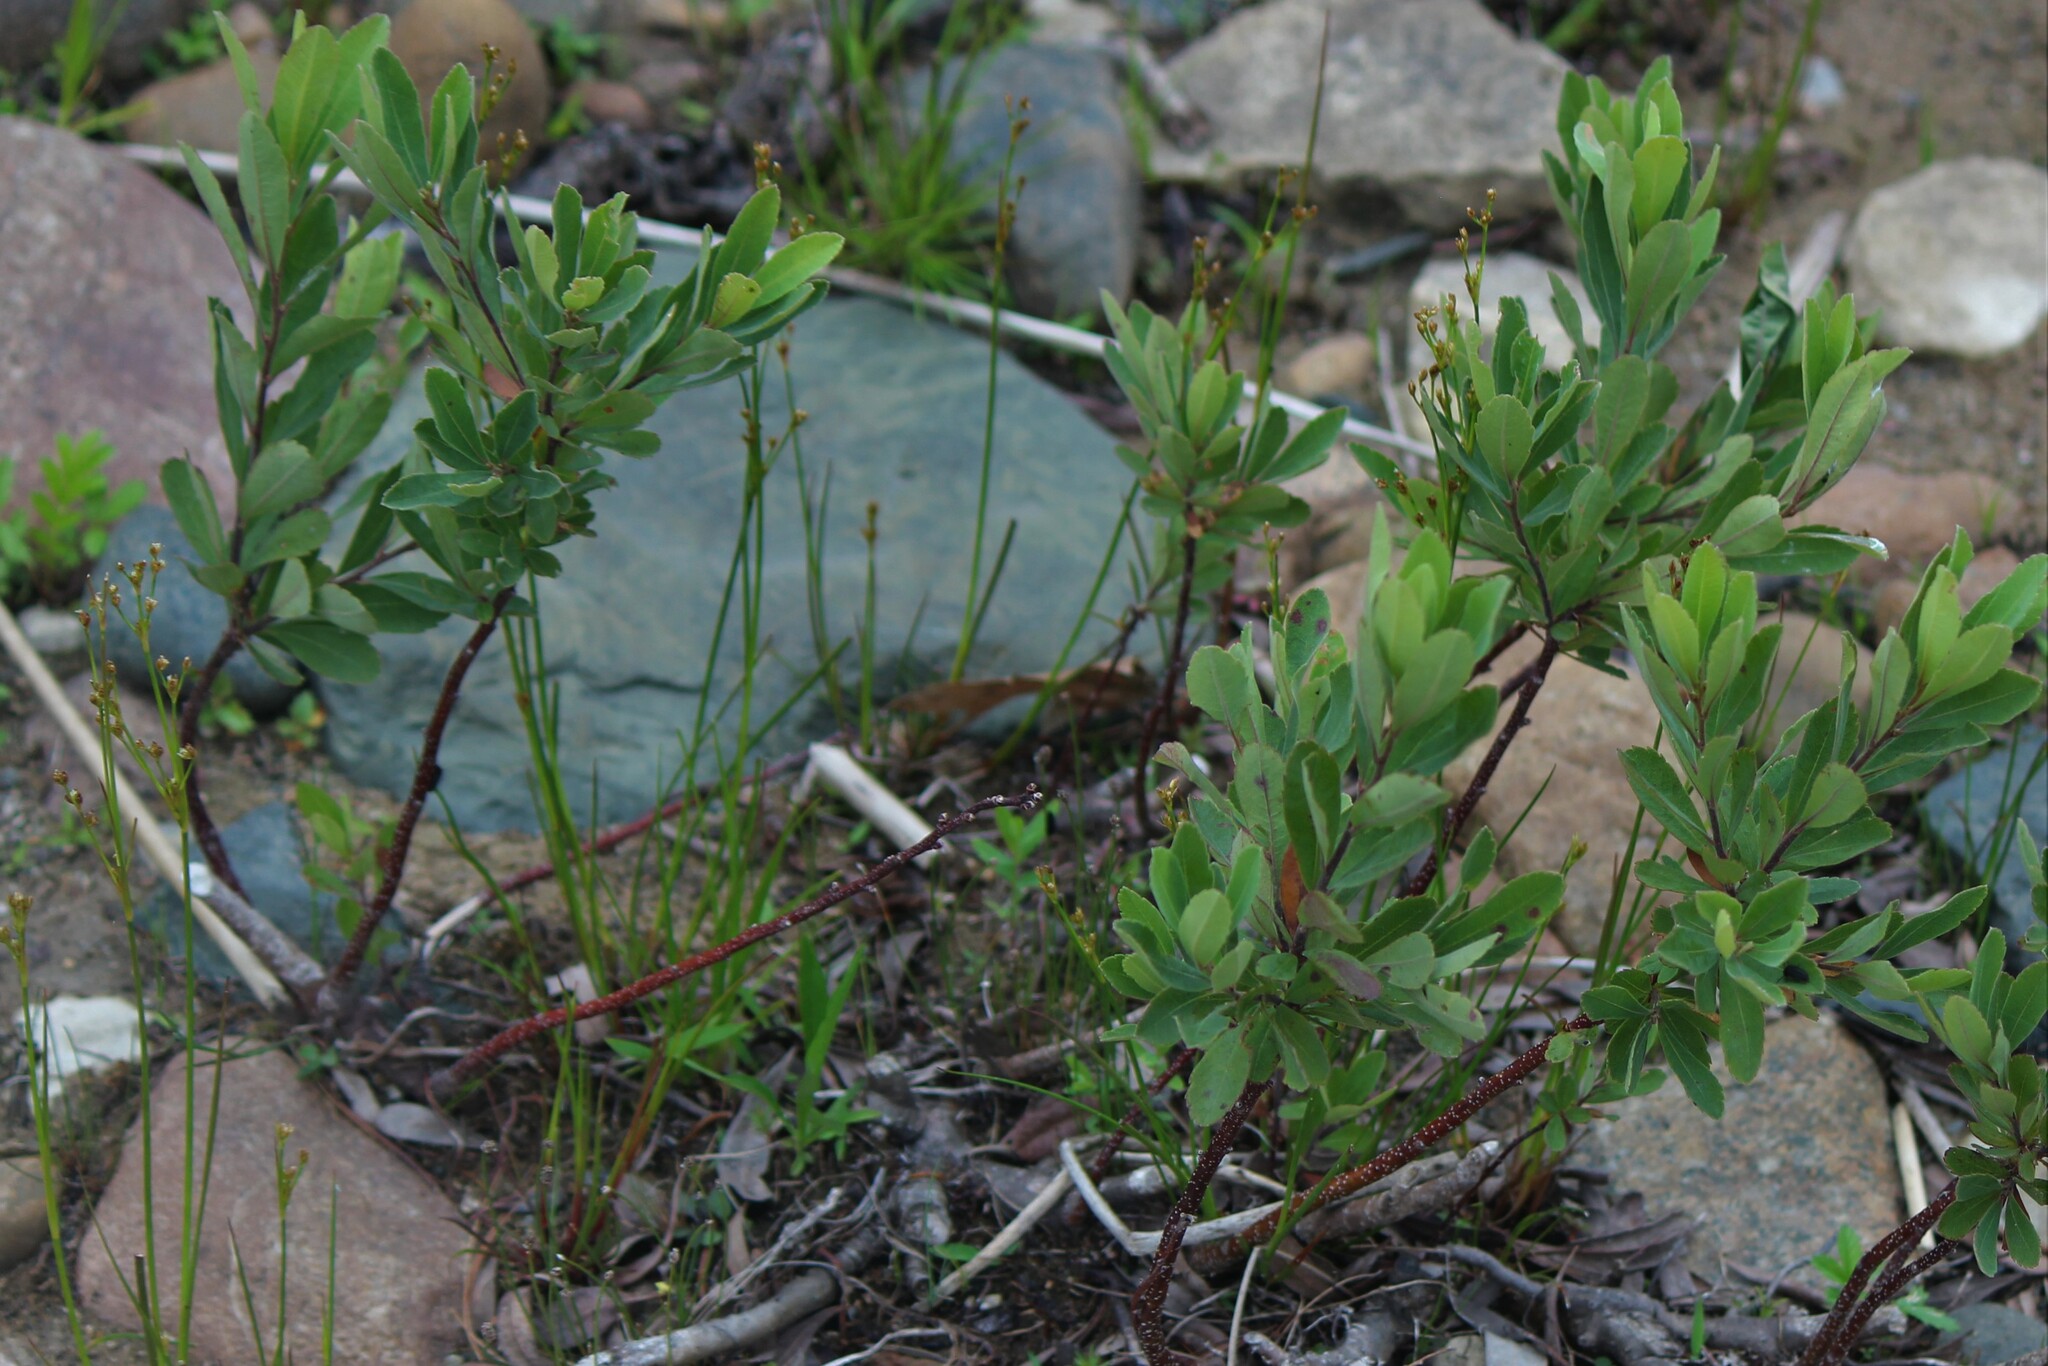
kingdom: Plantae
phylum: Tracheophyta
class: Magnoliopsida
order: Fagales
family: Myricaceae
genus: Myrica
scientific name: Myrica gale
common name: Sweet gale
